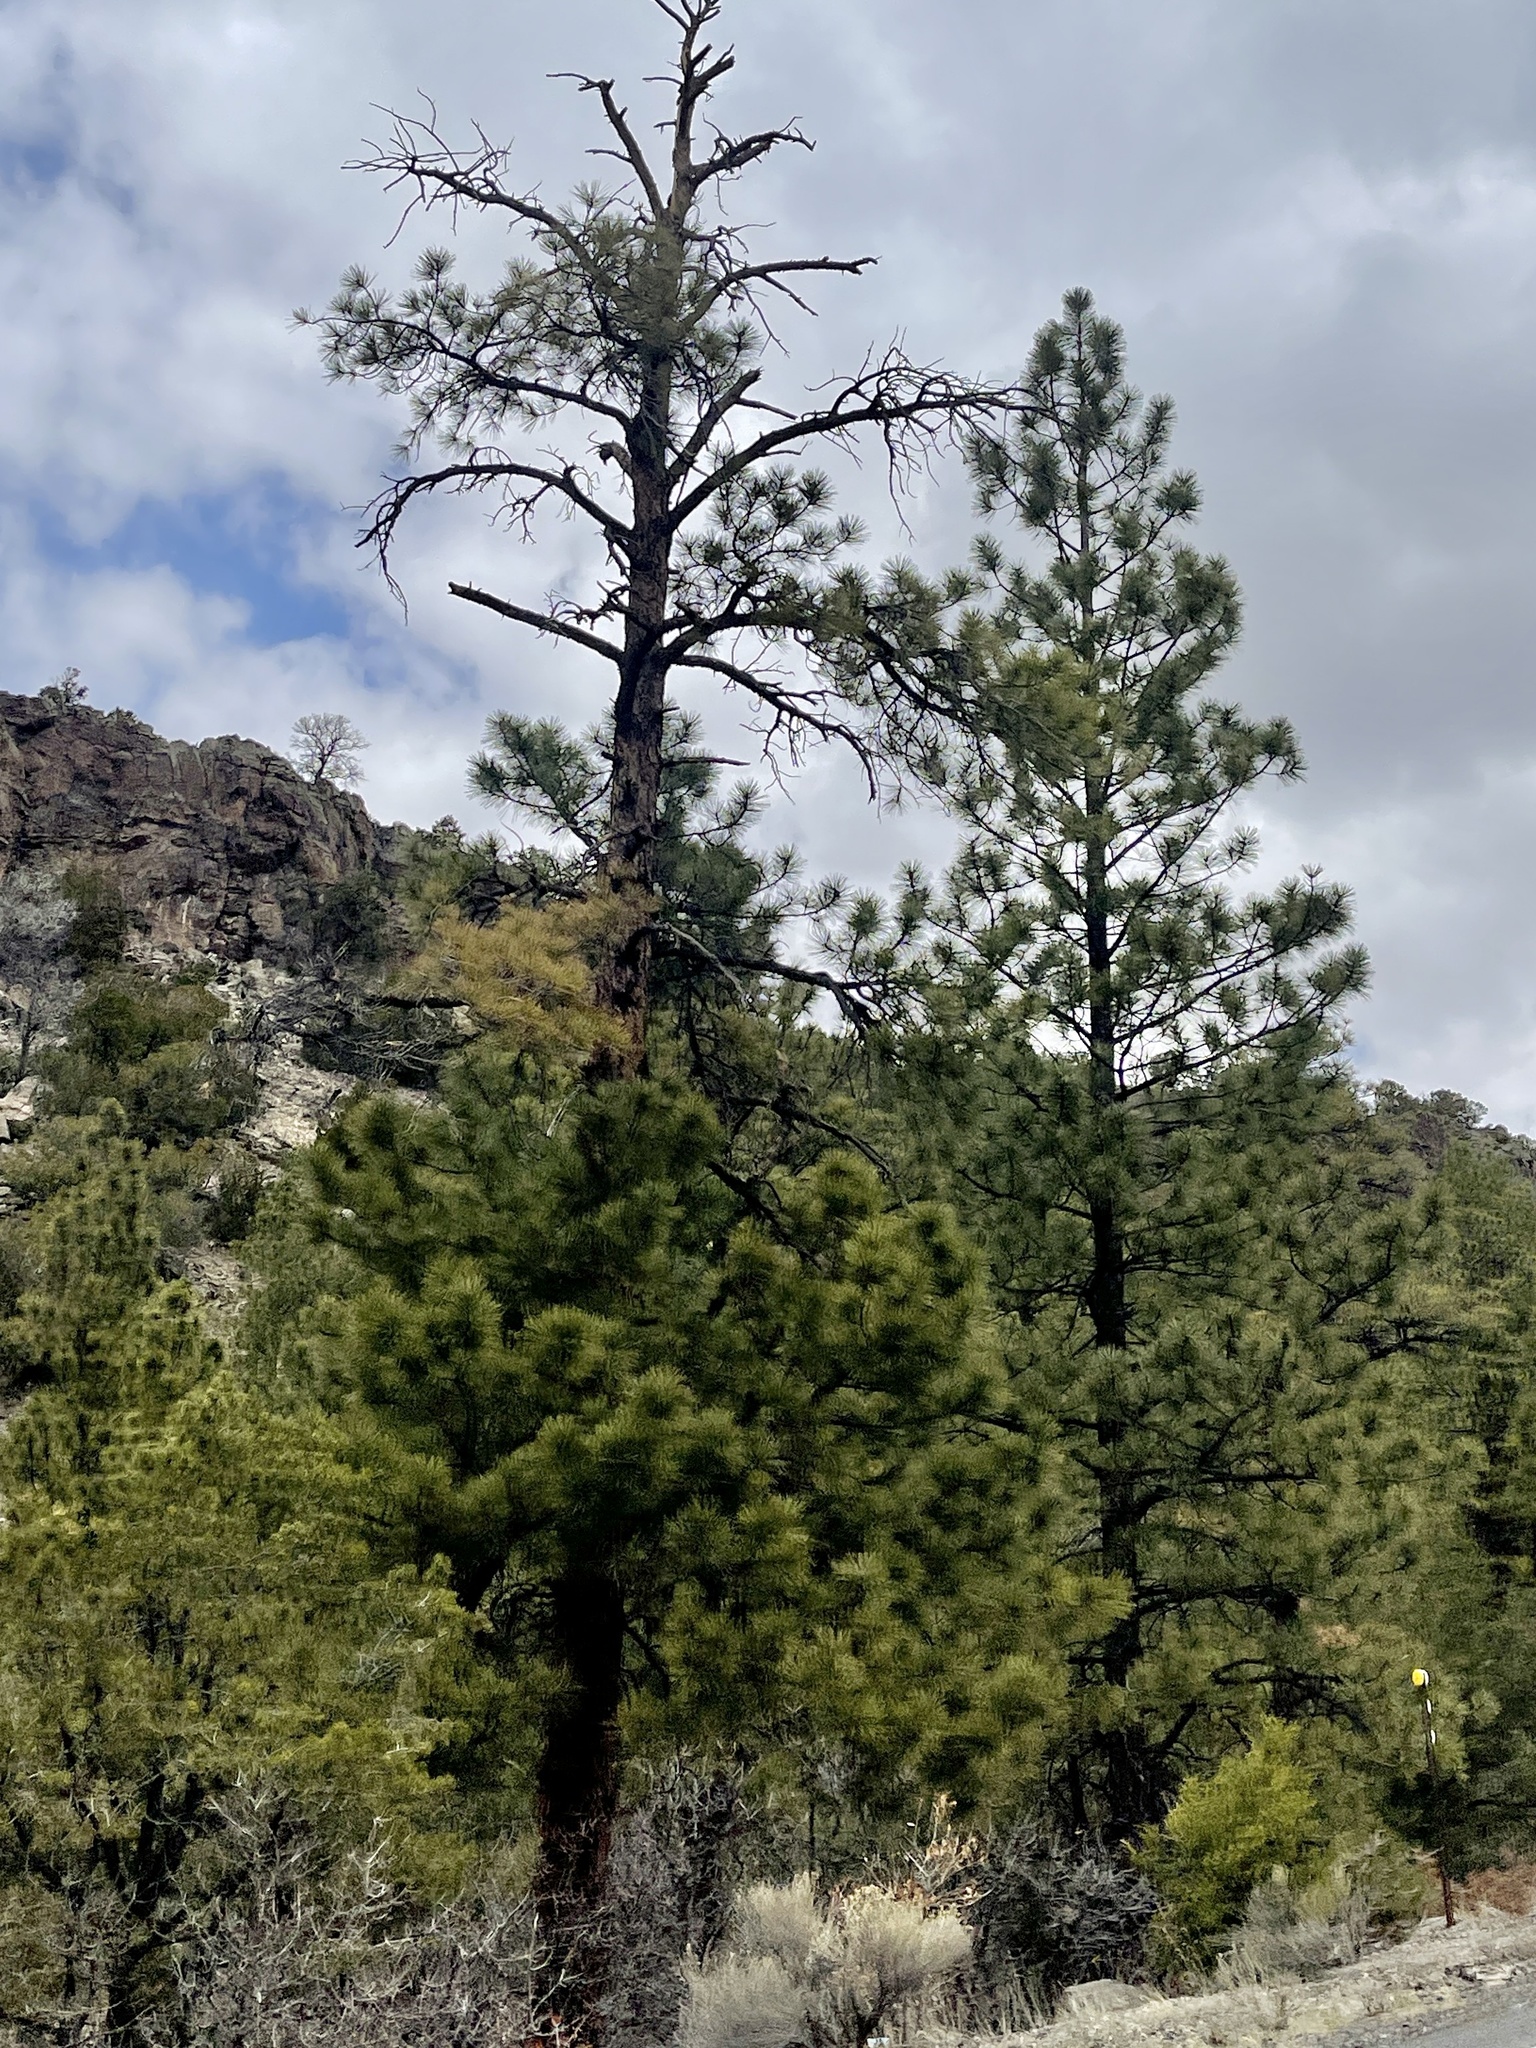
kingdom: Plantae
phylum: Tracheophyta
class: Pinopsida
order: Pinales
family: Pinaceae
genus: Pinus
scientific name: Pinus ponderosa
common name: Western yellow-pine
